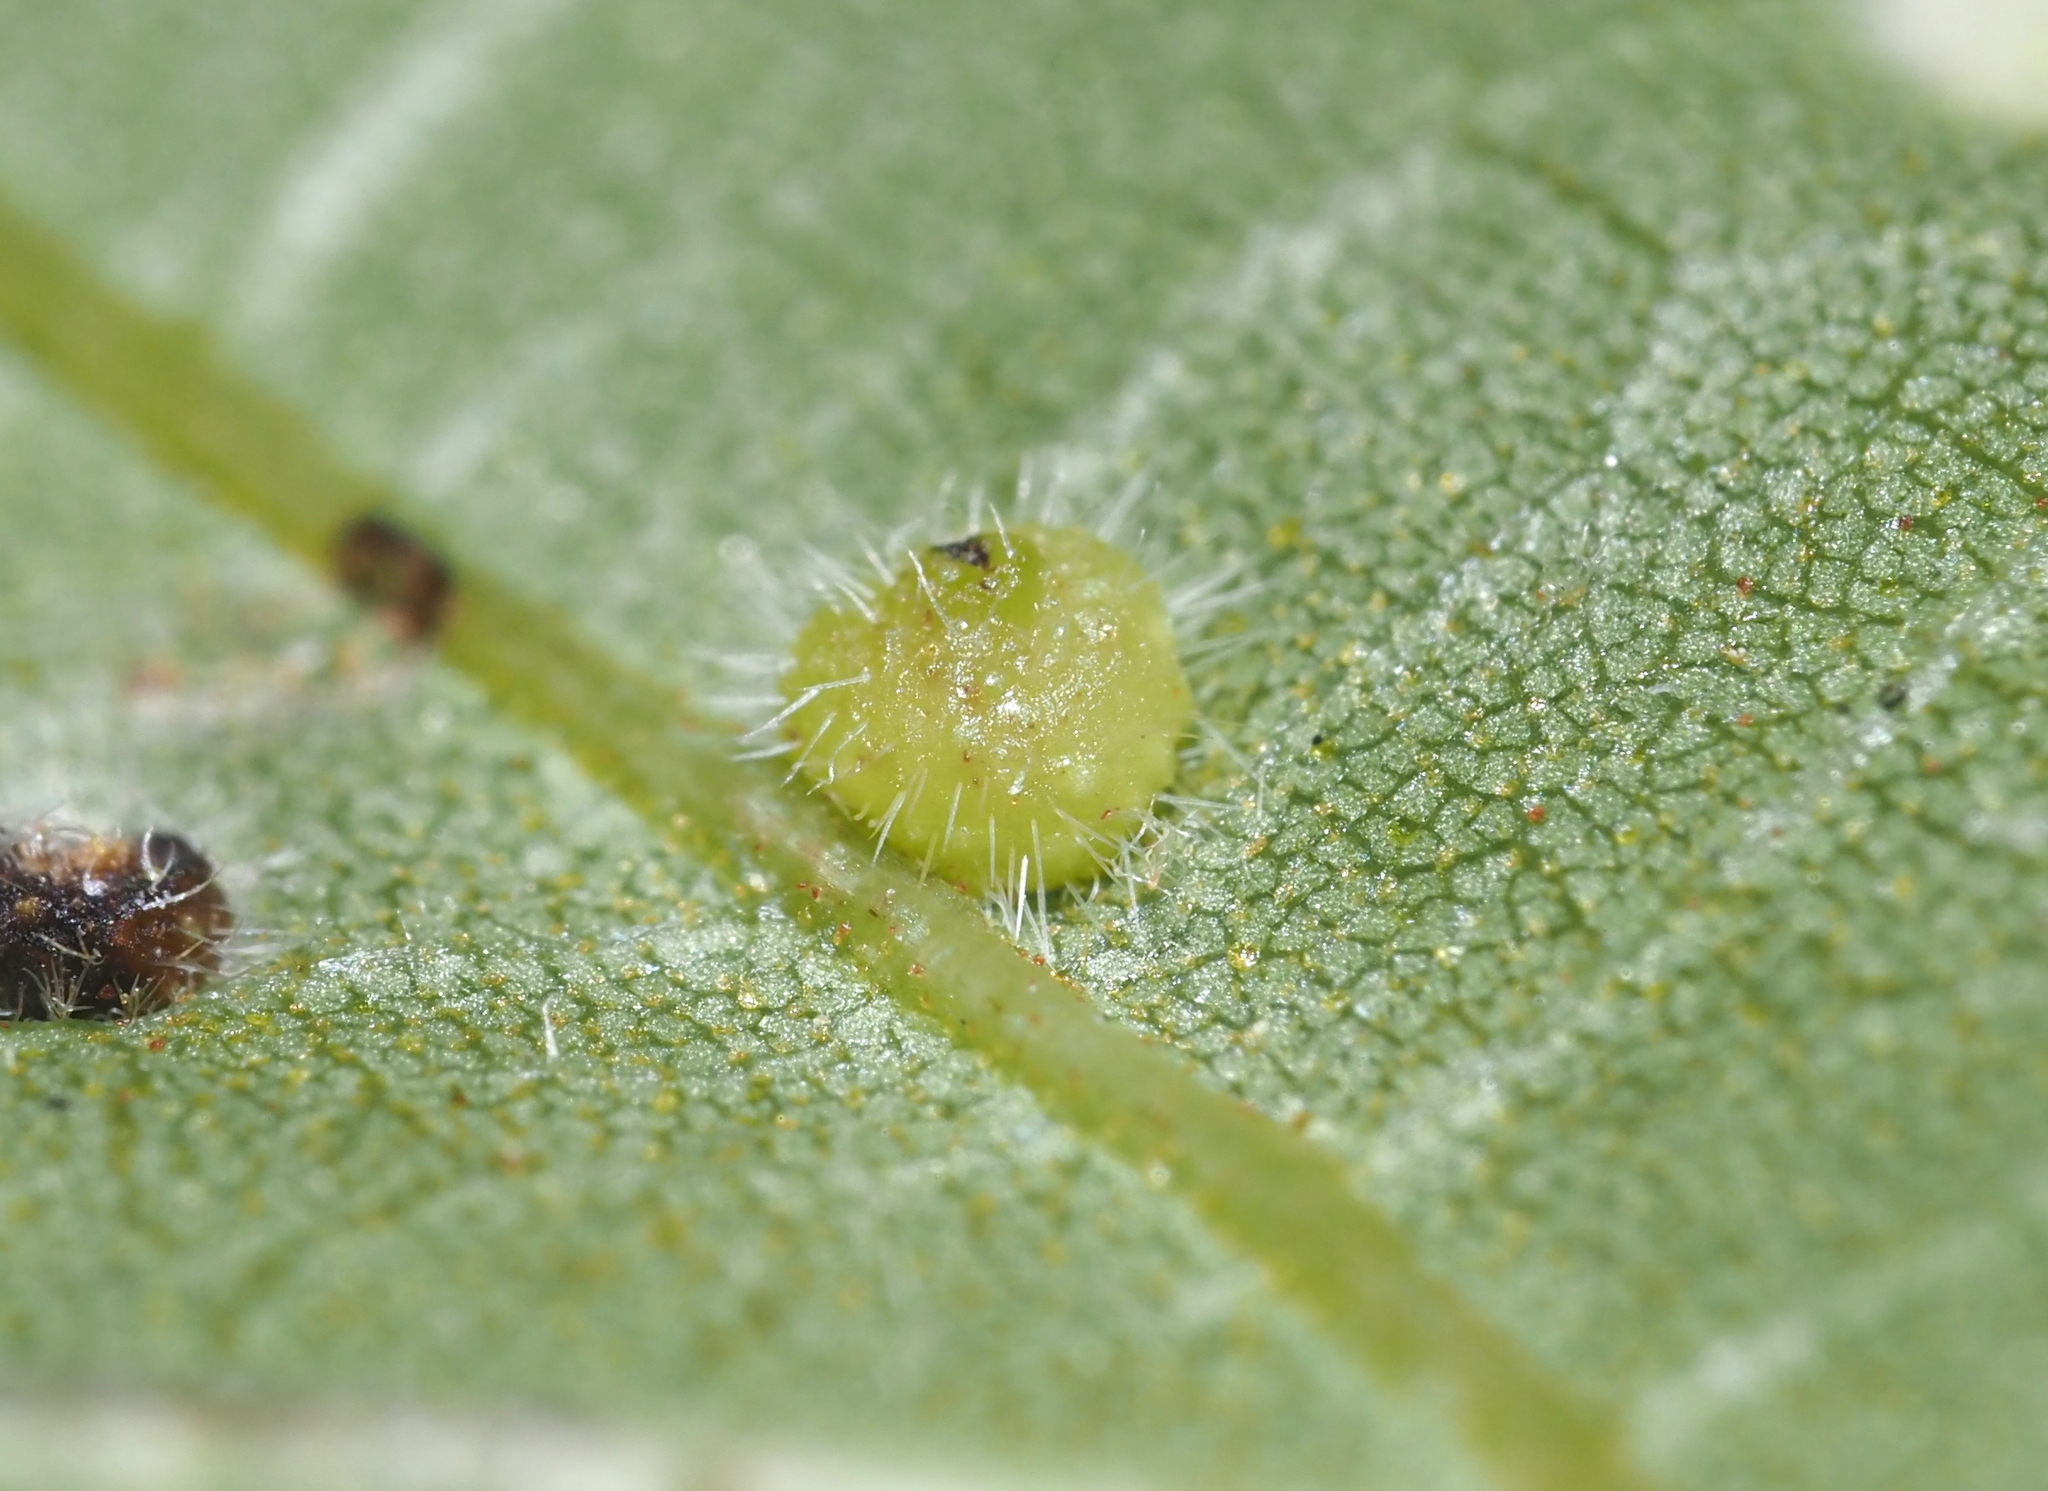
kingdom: Animalia
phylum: Arthropoda
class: Insecta
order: Diptera
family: Cecidomyiidae
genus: Caryomyia
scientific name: Caryomyia thompsoni
